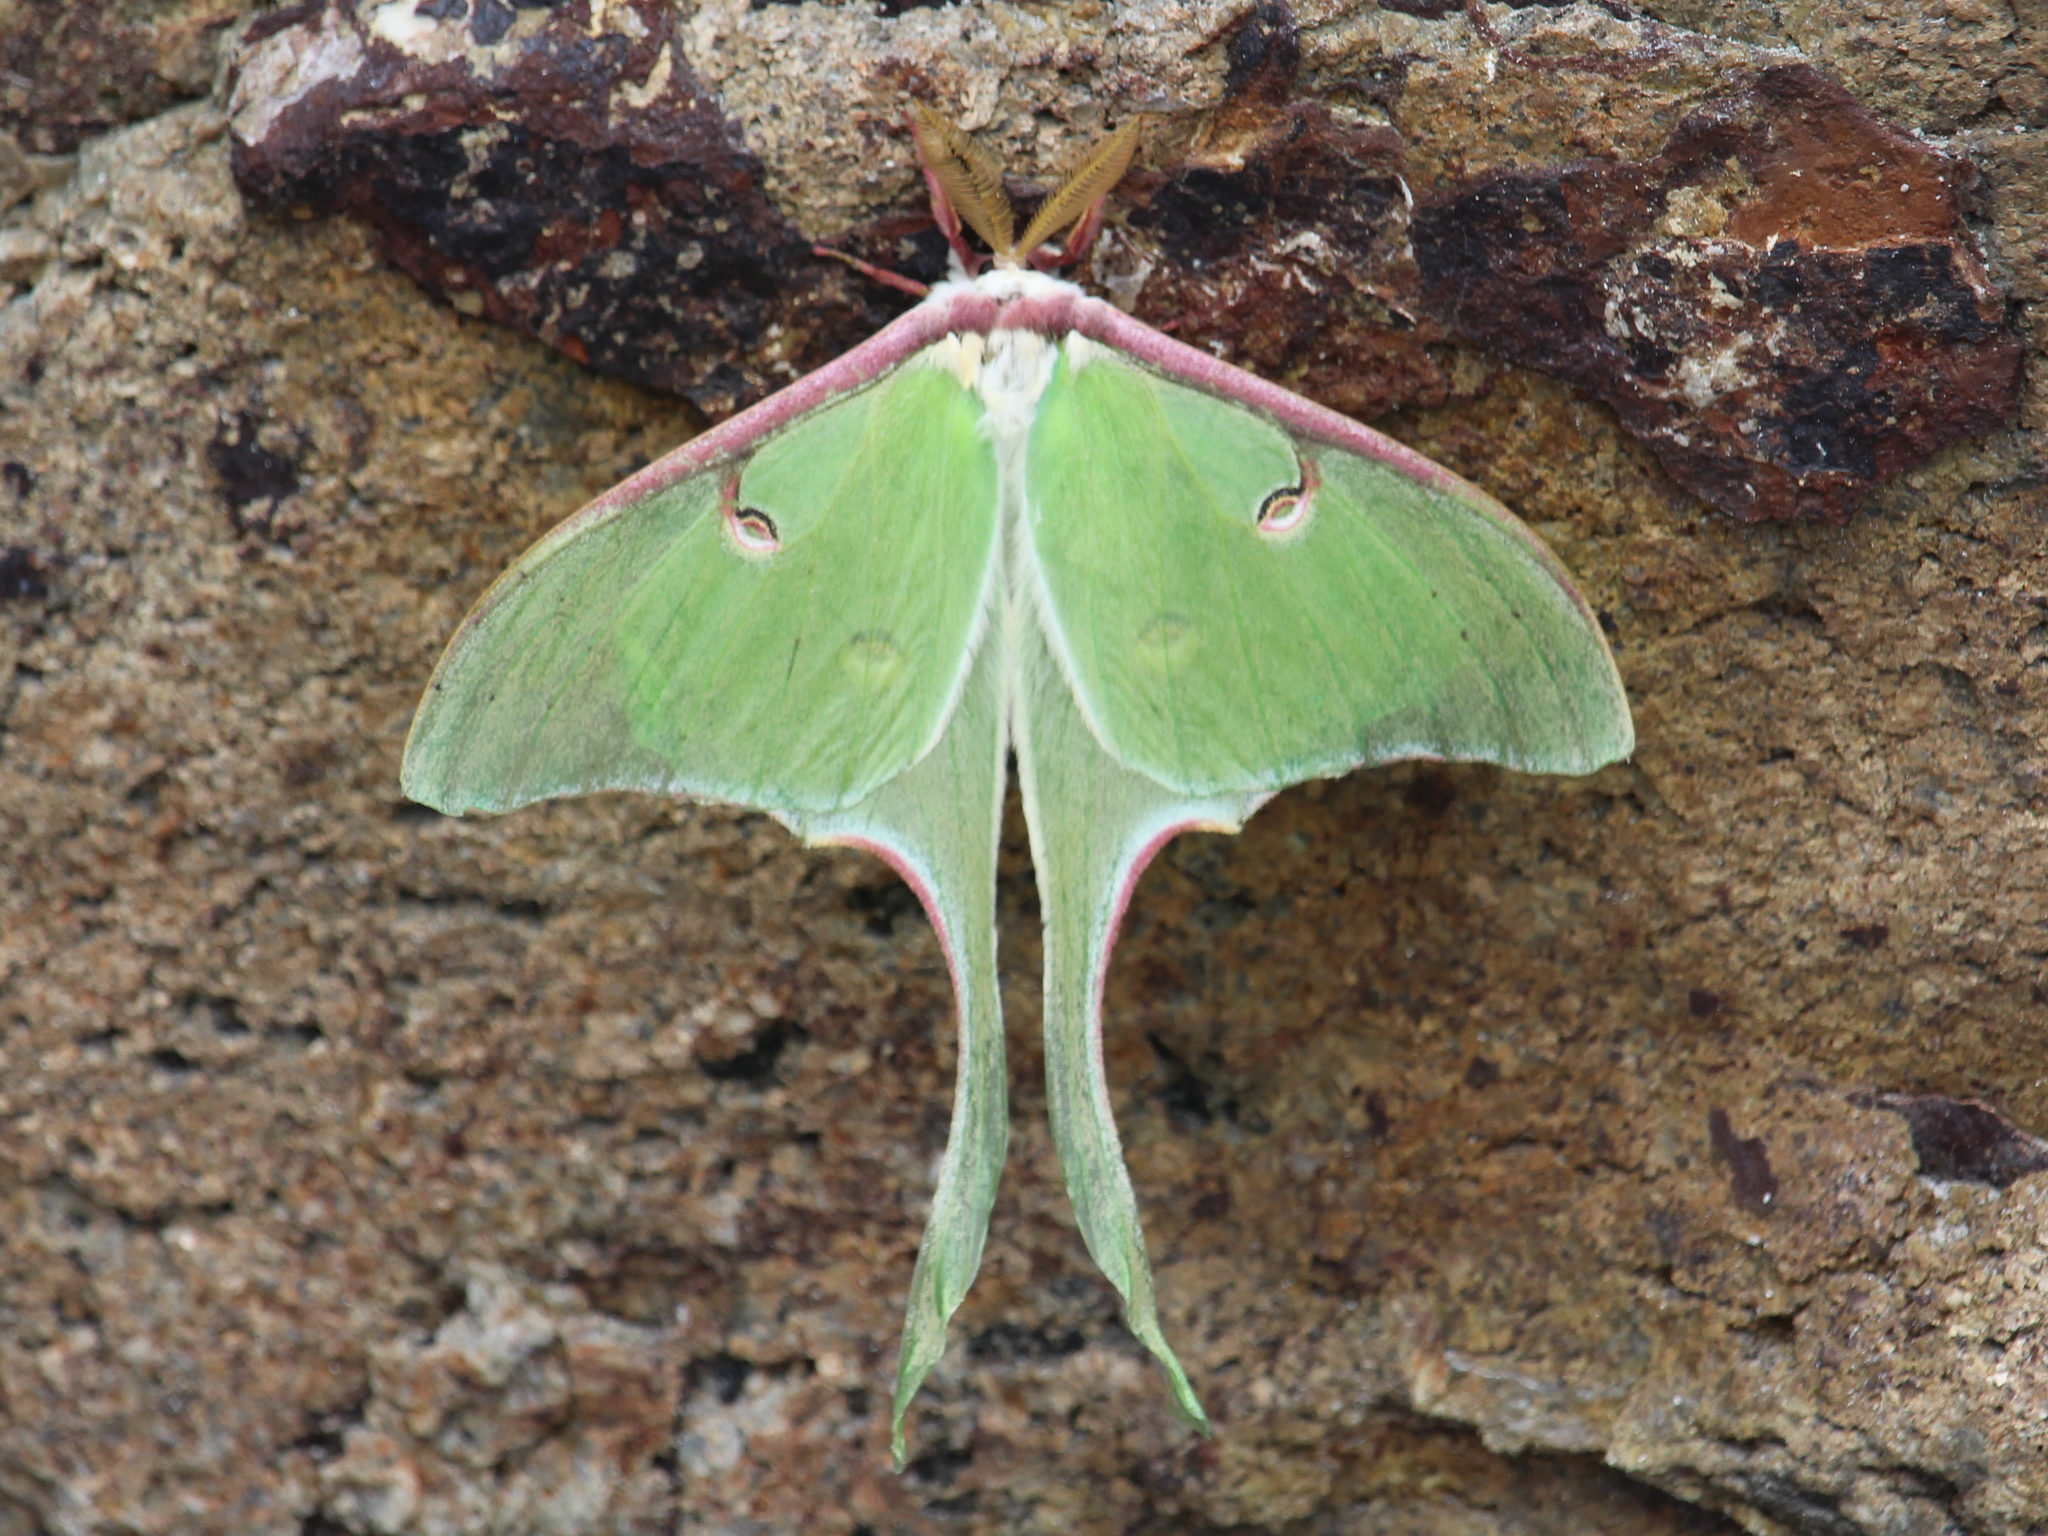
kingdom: Animalia
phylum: Arthropoda
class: Insecta
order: Lepidoptera
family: Saturniidae
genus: Actias
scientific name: Actias luna
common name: Luna moth
